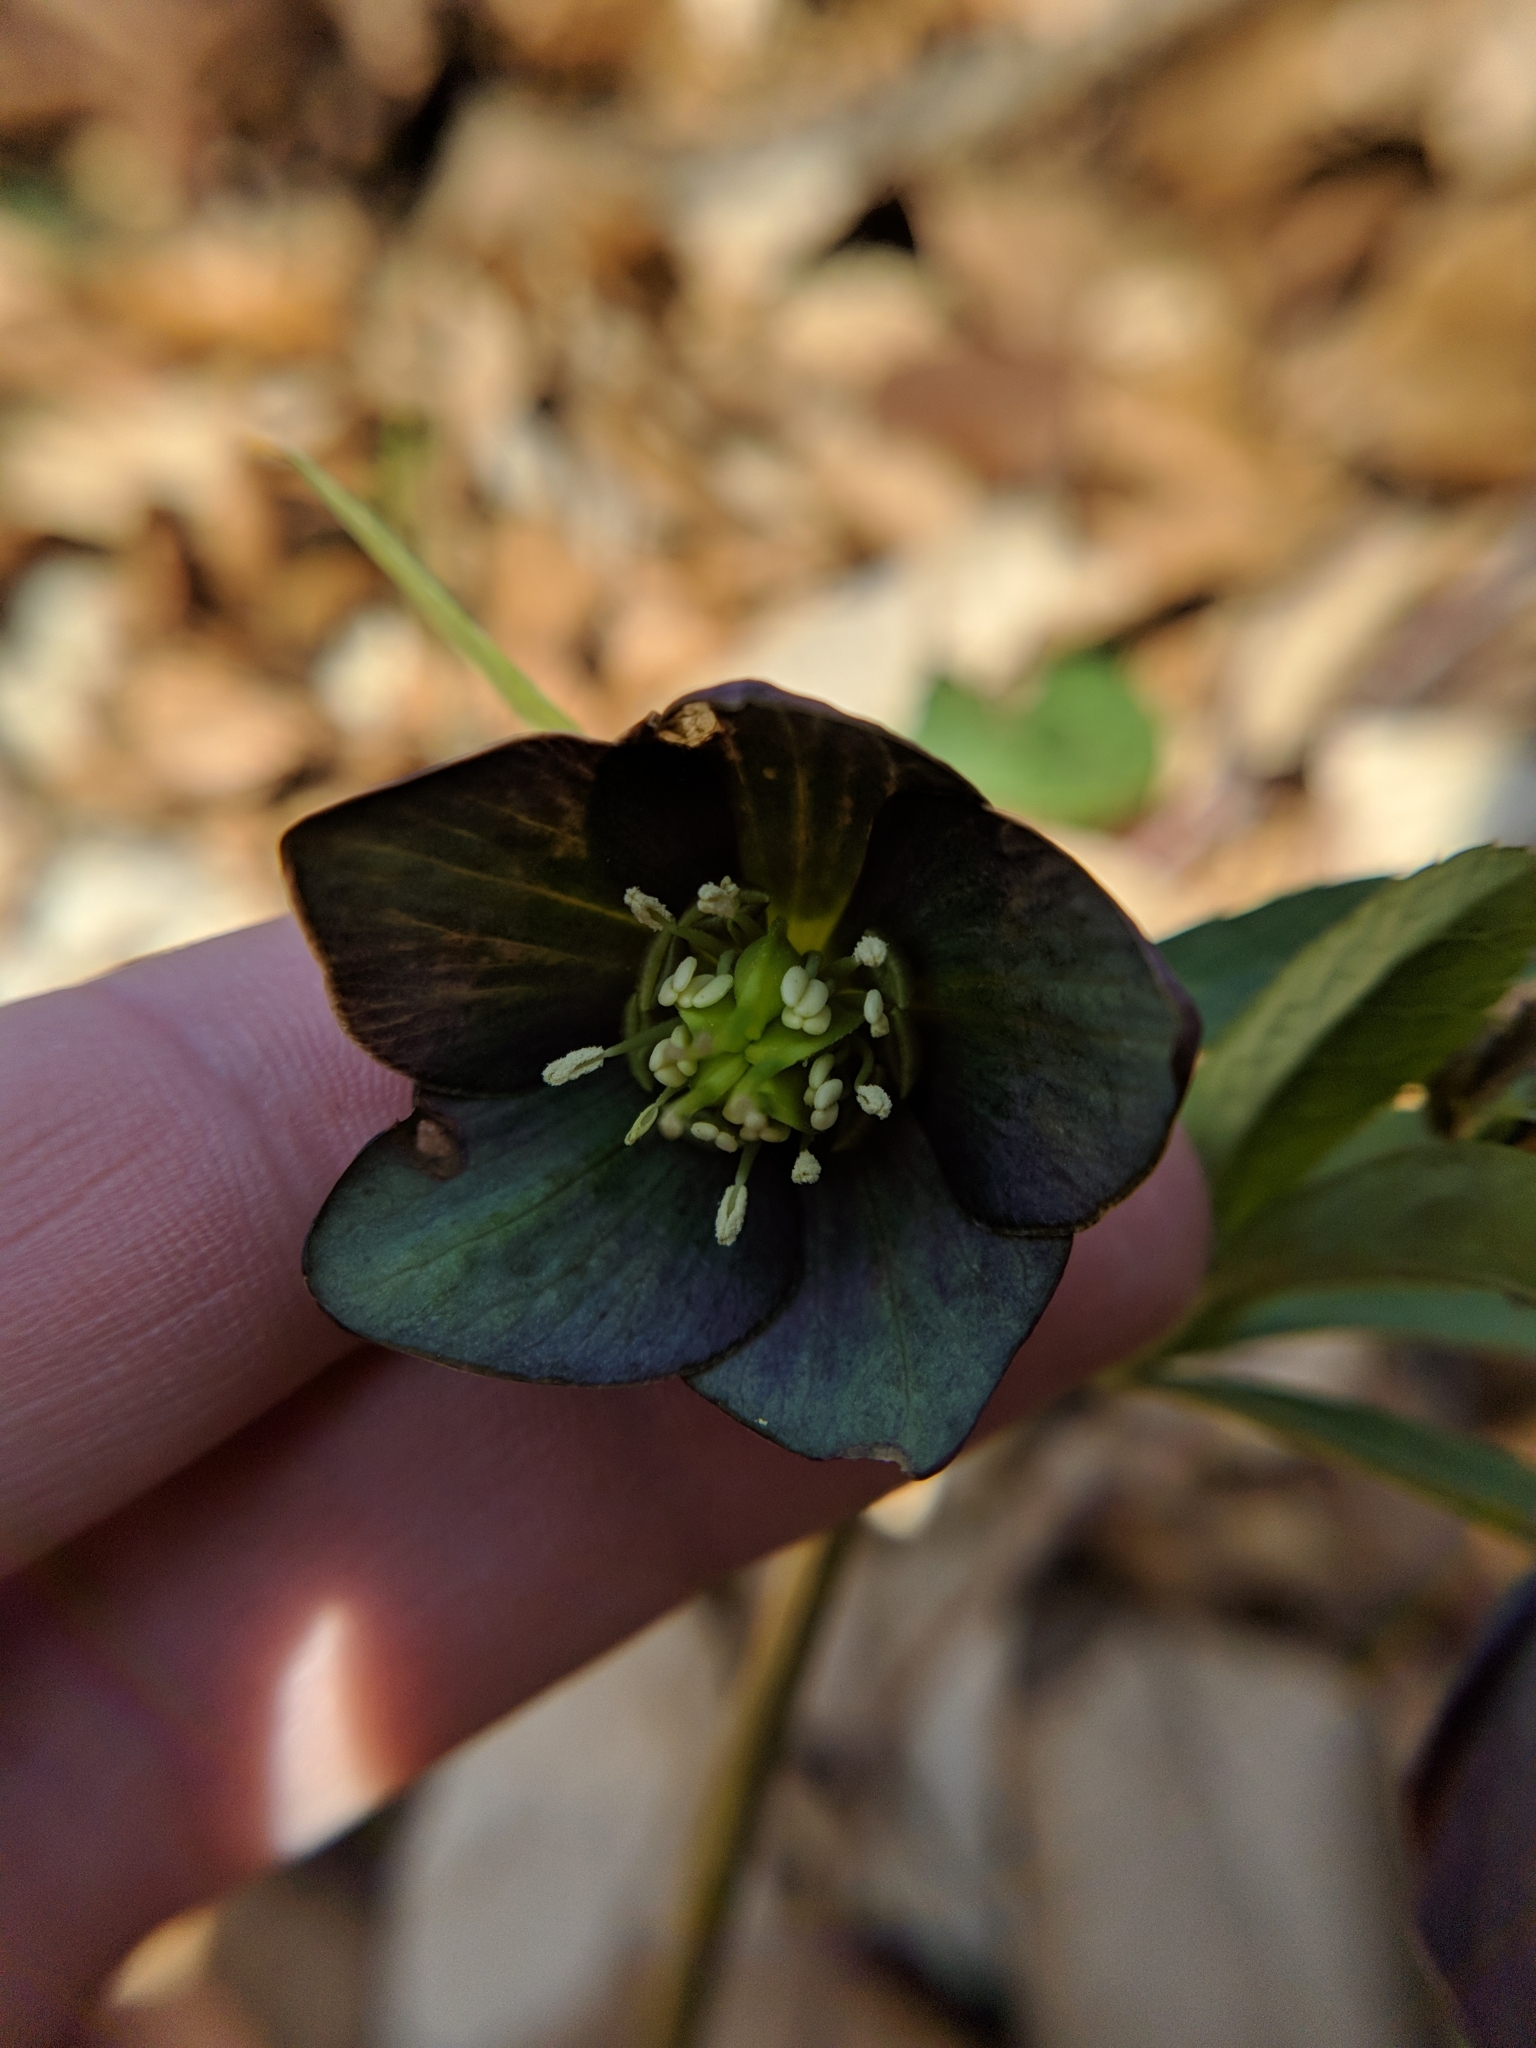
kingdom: Plantae
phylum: Tracheophyta
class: Magnoliopsida
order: Ranunculales
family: Ranunculaceae
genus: Helleborus
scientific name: Helleborus dumetorum
